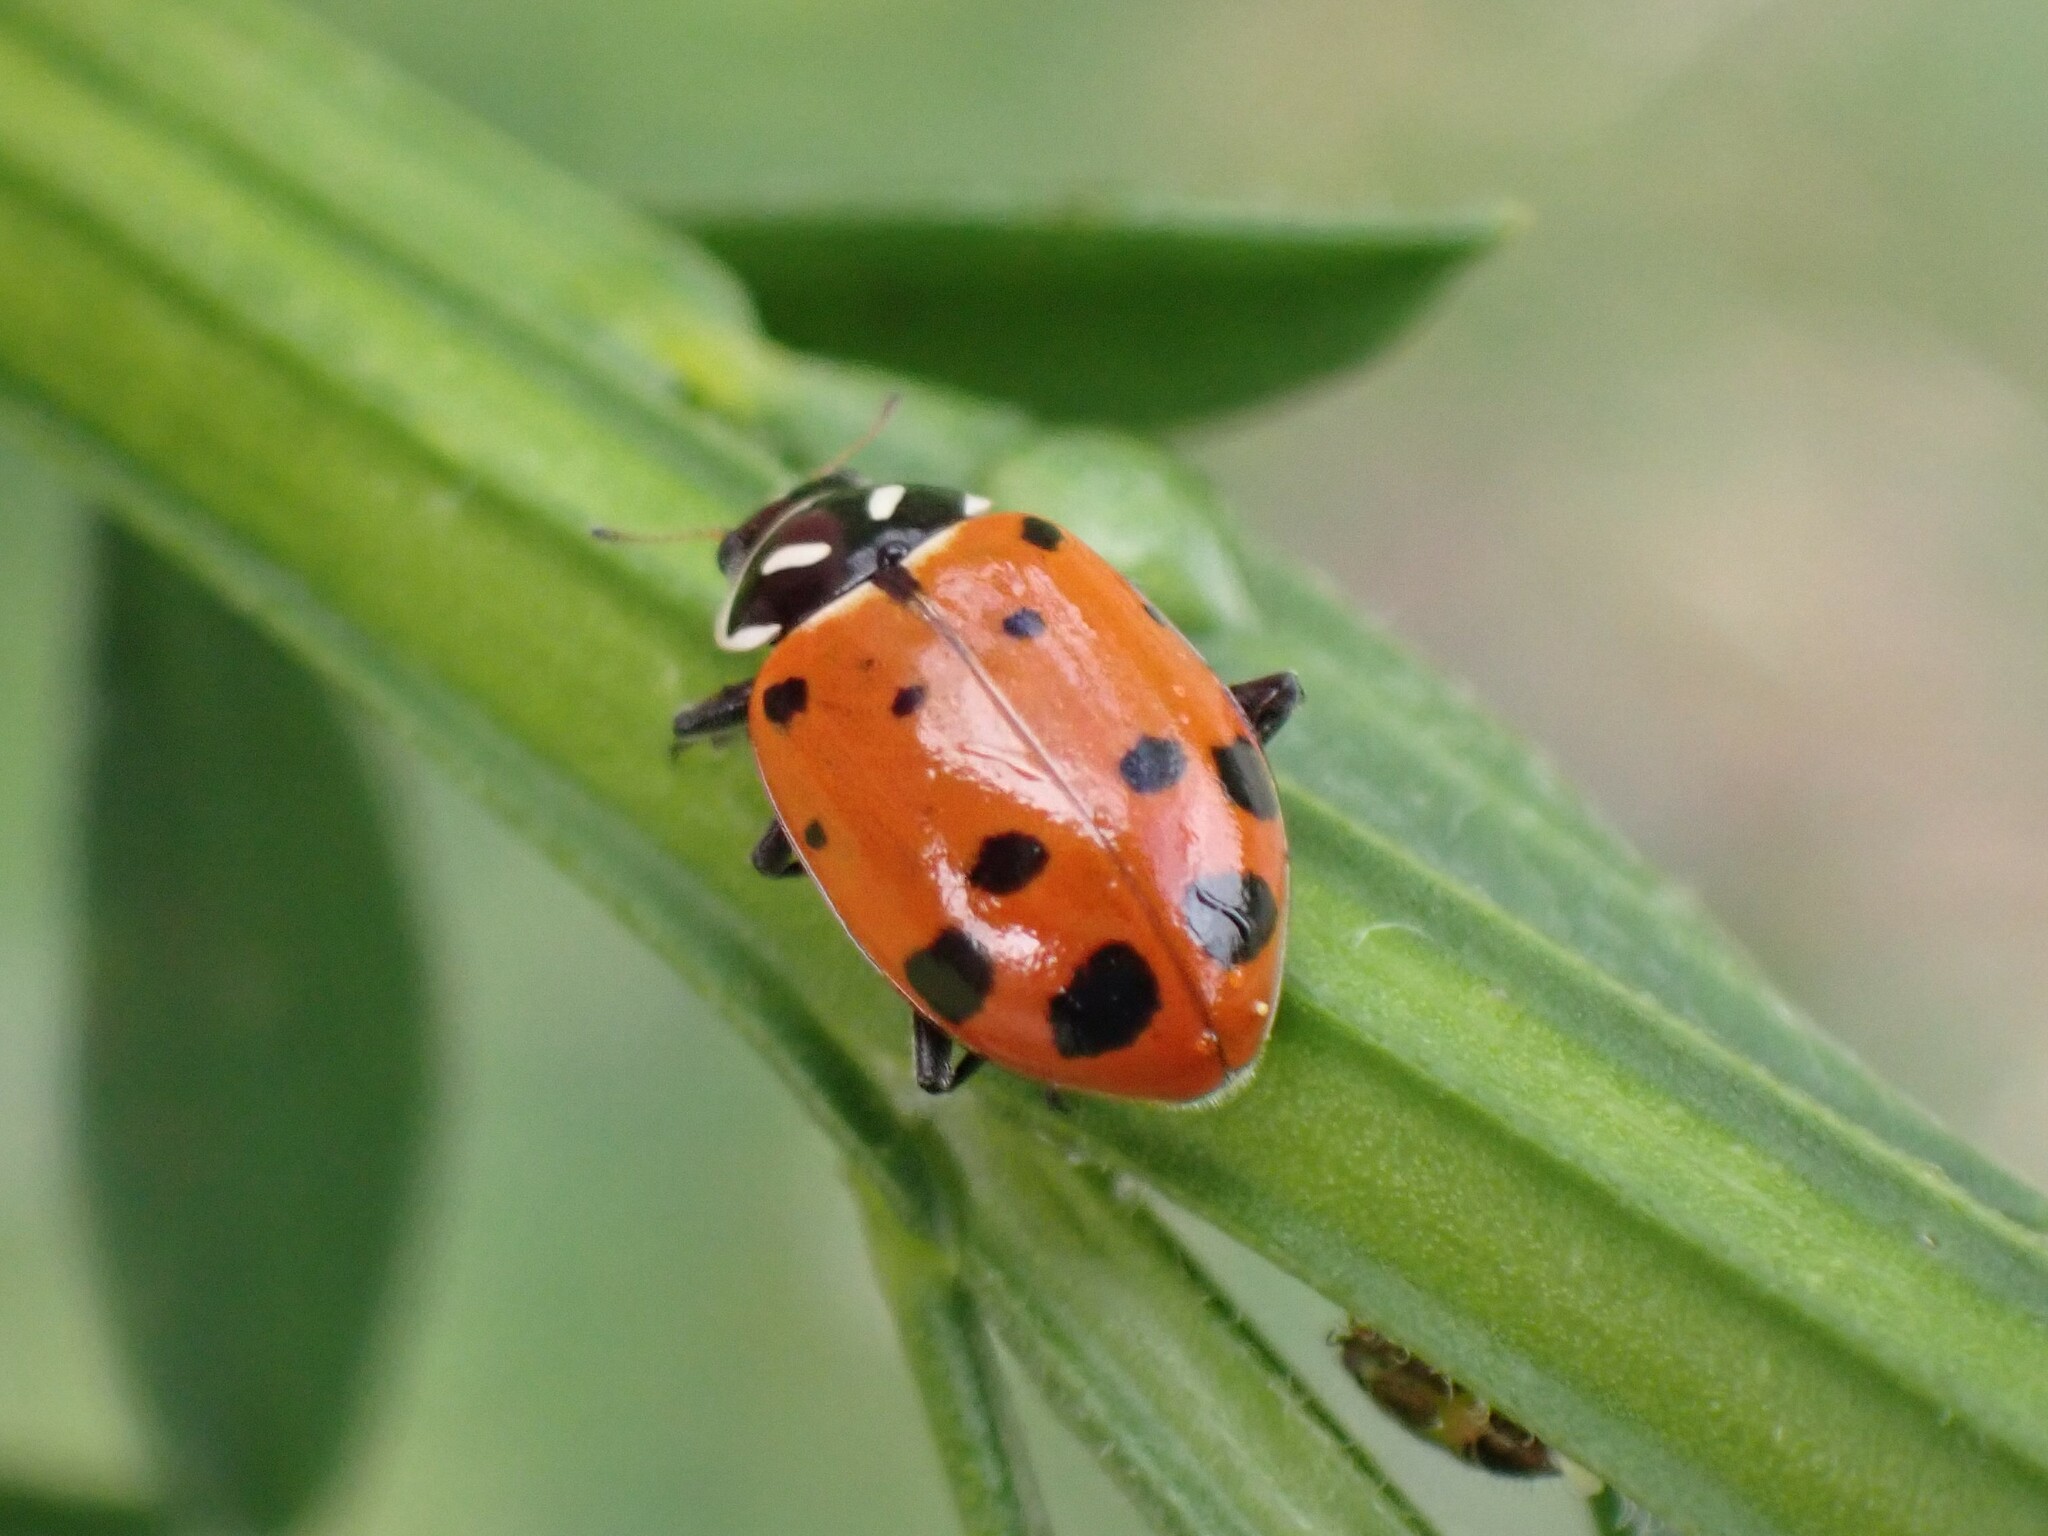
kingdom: Animalia
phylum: Arthropoda
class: Insecta
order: Coleoptera
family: Coccinellidae
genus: Hippodamia
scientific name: Hippodamia convergens
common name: Convergent lady beetle
